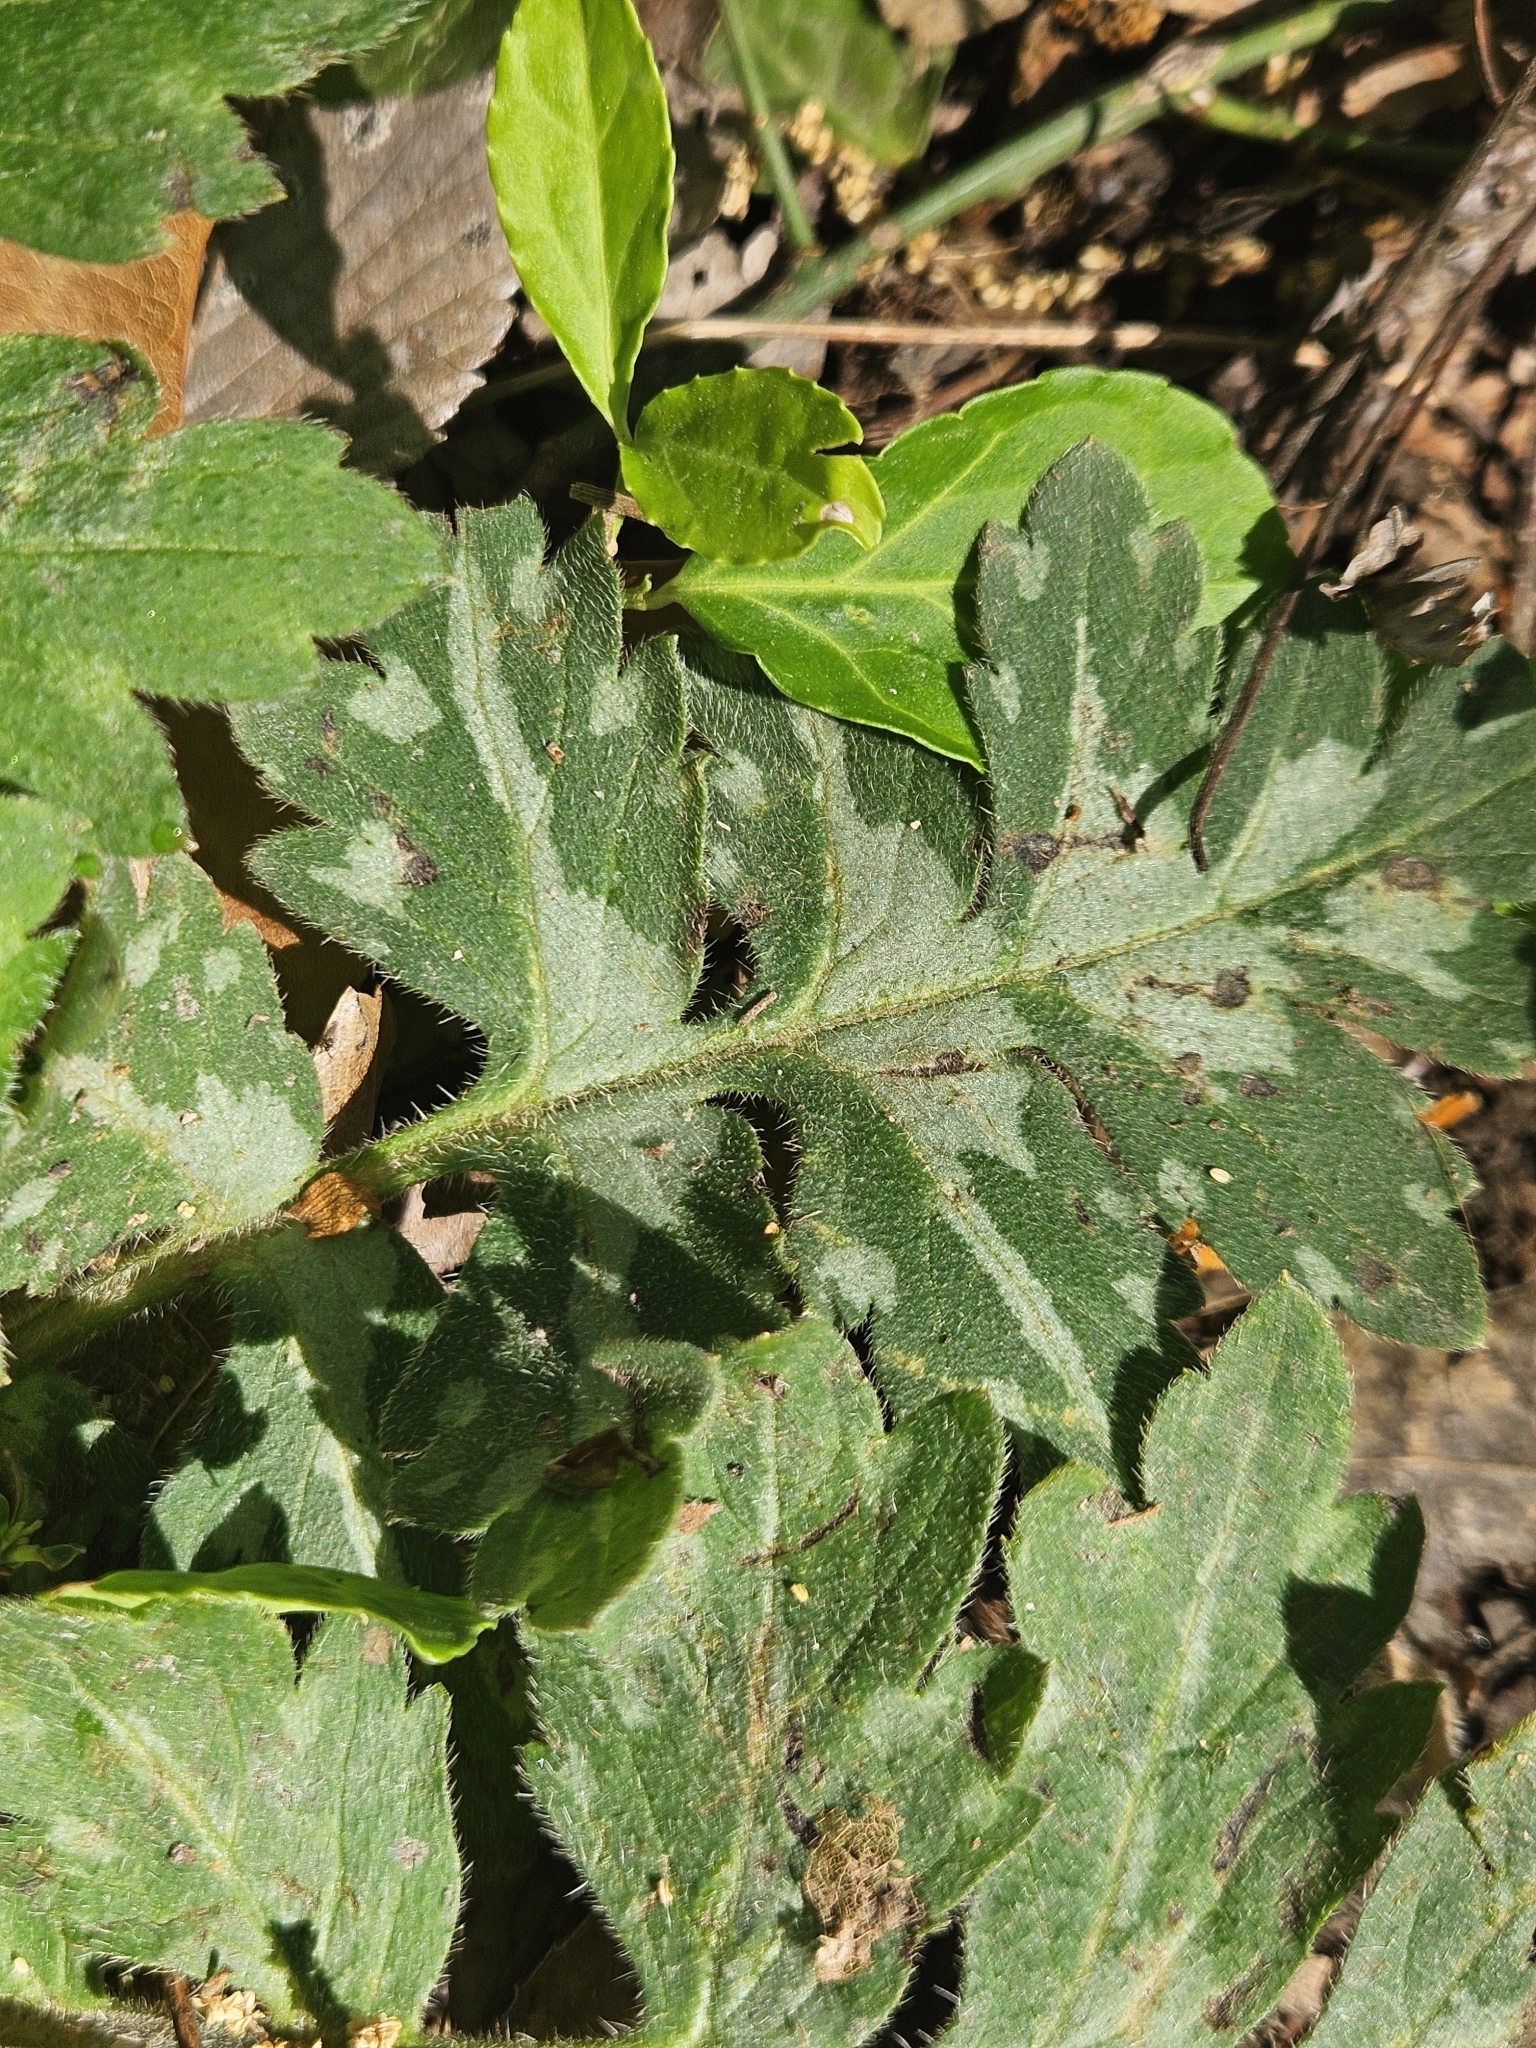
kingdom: Plantae
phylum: Tracheophyta
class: Magnoliopsida
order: Boraginales
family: Hydrophyllaceae
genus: Hydrophyllum
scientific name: Hydrophyllum macrophyllum
